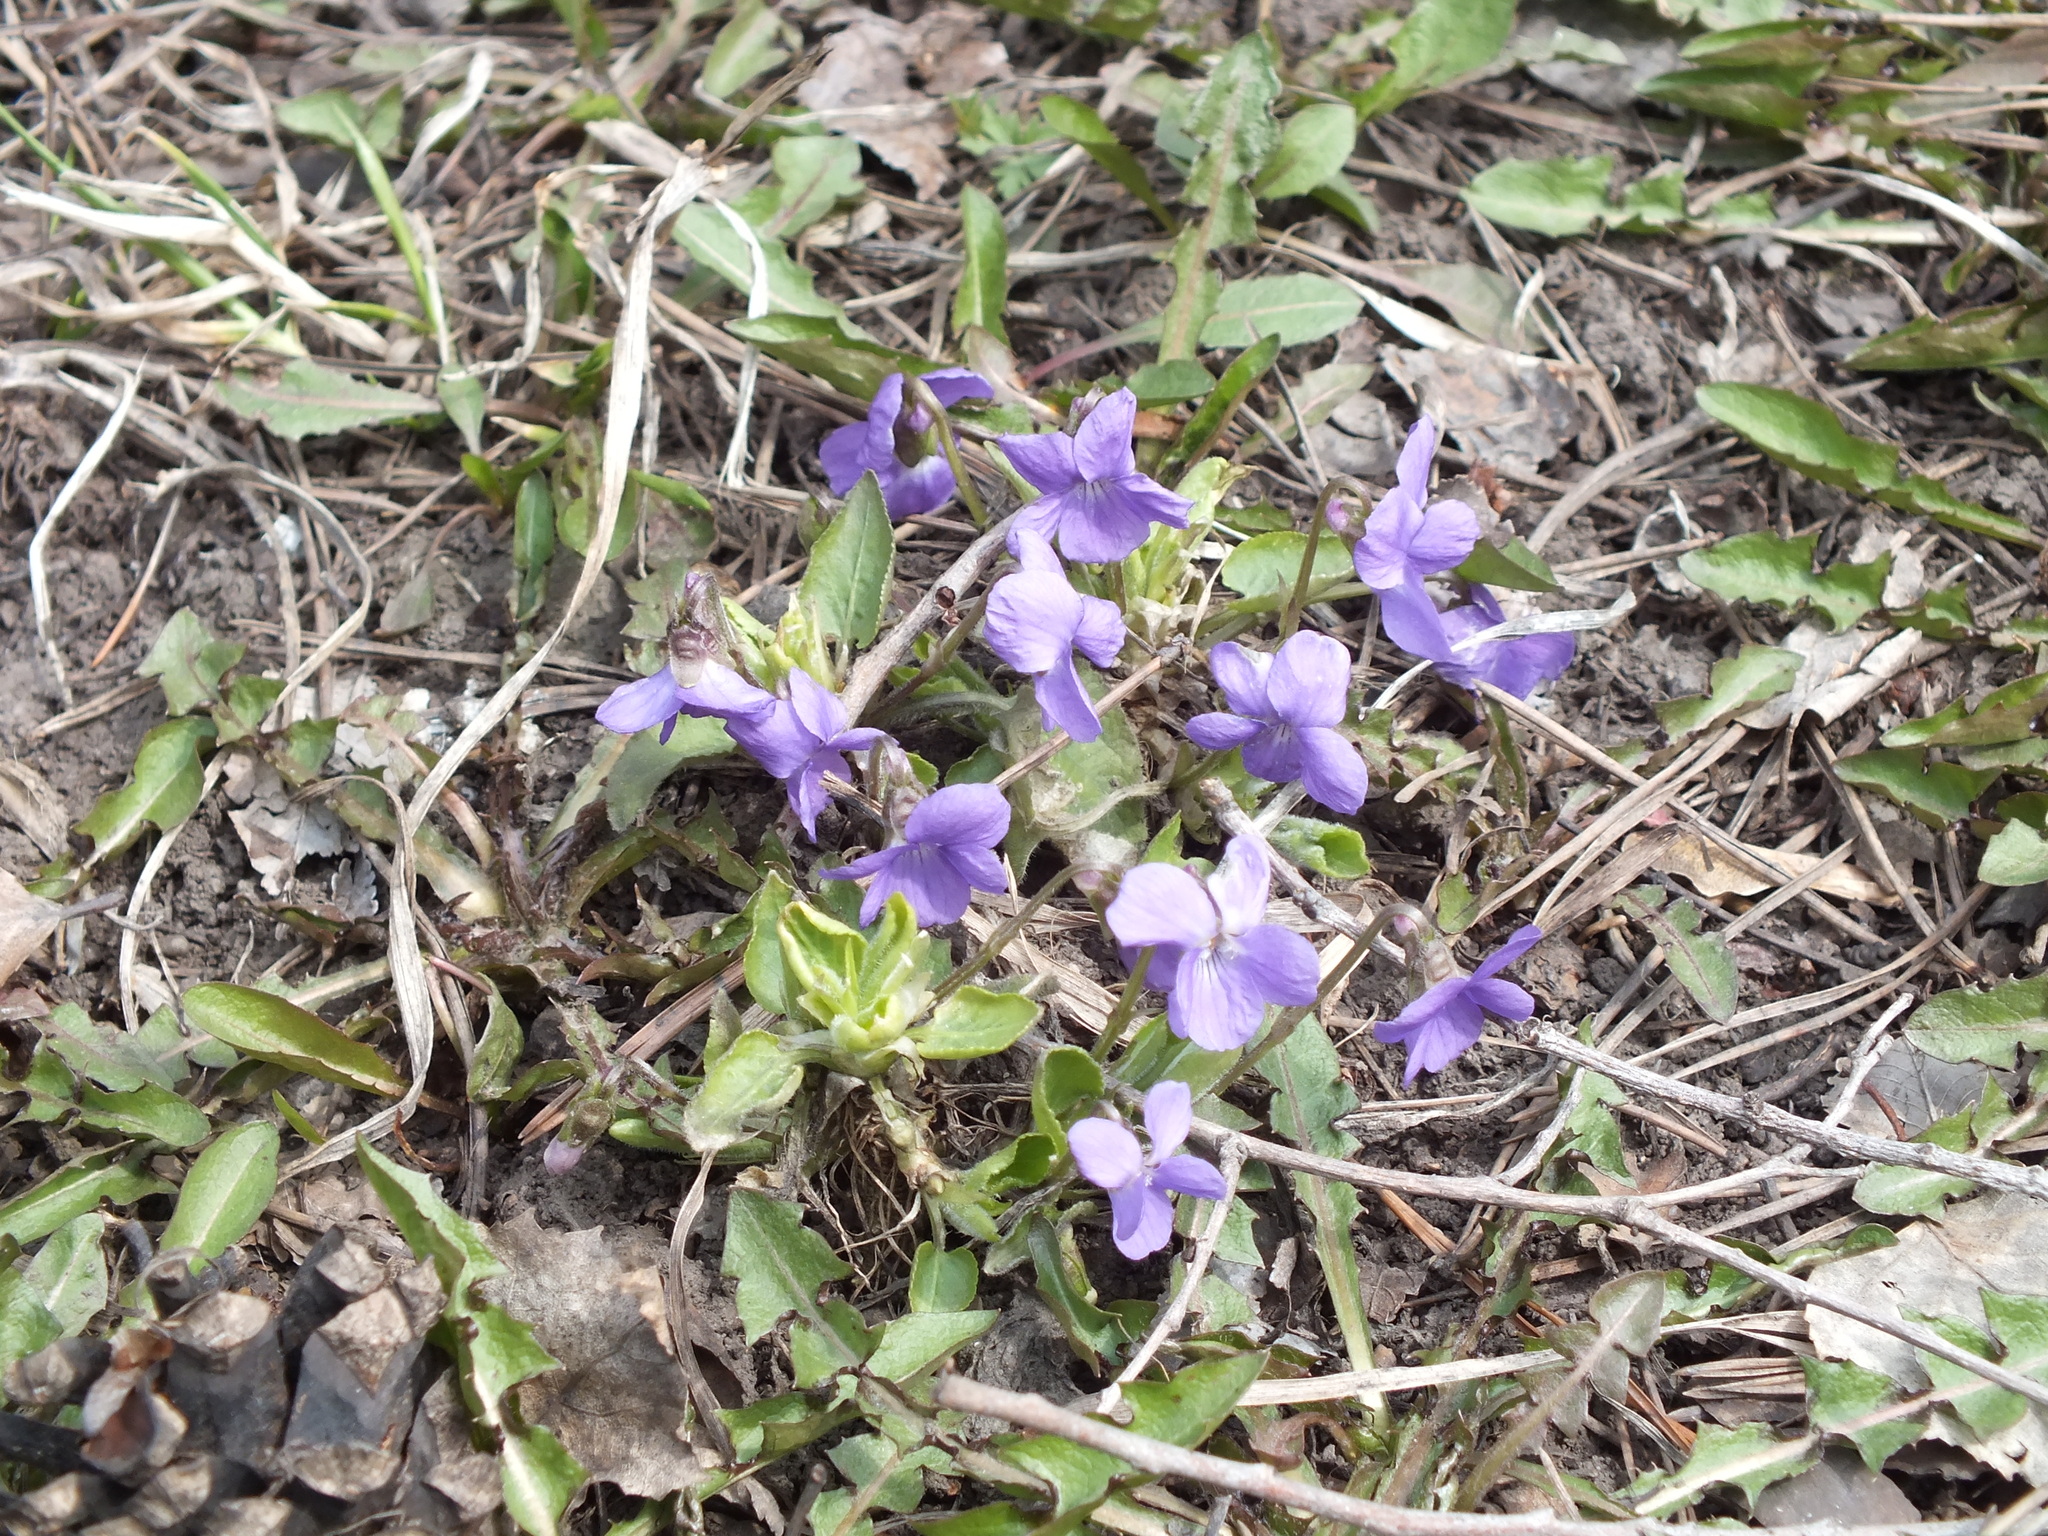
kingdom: Plantae
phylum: Tracheophyta
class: Magnoliopsida
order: Malpighiales
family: Violaceae
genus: Viola
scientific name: Viola hirta
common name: Hairy violet
